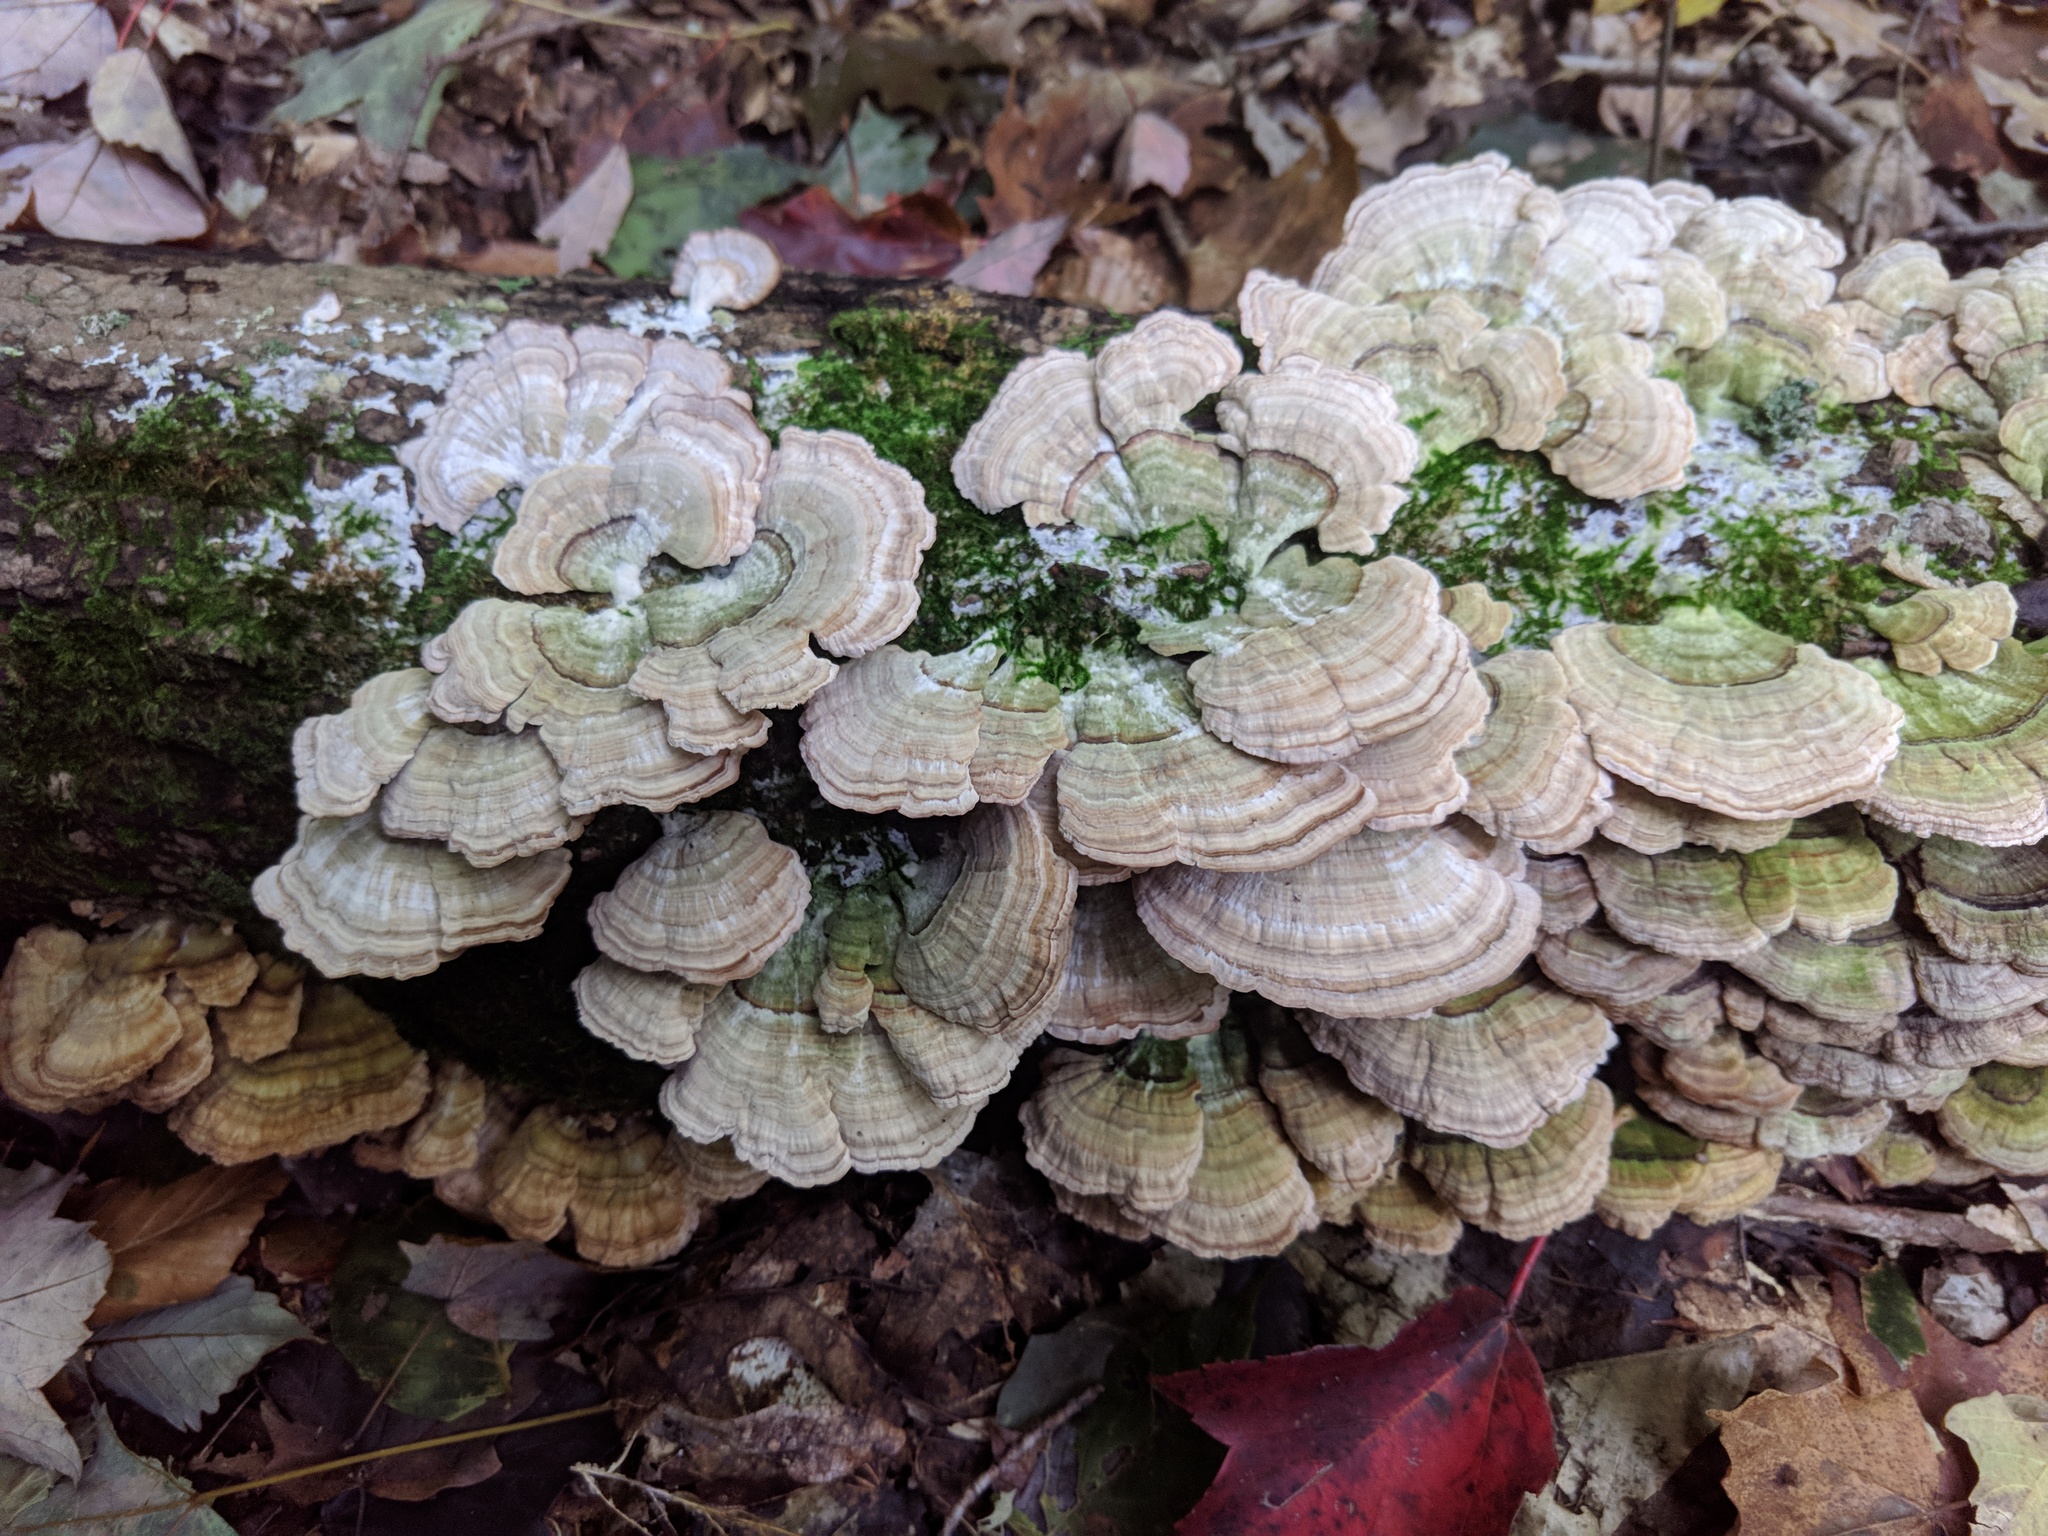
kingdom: Fungi
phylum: Basidiomycota
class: Agaricomycetes
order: Hymenochaetales
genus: Trichaptum
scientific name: Trichaptum biforme
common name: Violet-toothed polypore
